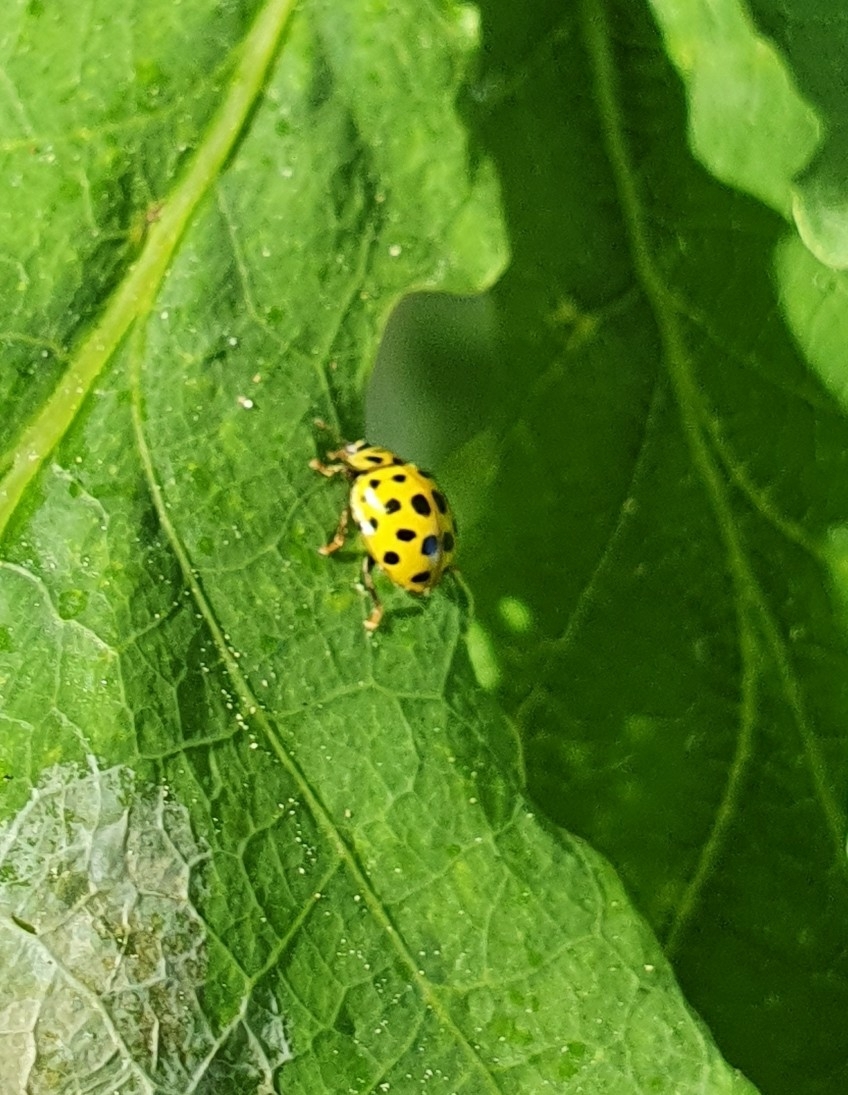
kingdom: Animalia
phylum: Arthropoda
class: Insecta
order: Coleoptera
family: Coccinellidae
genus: Psyllobora
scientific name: Psyllobora vigintiduopunctata
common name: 22-spot ladybird
